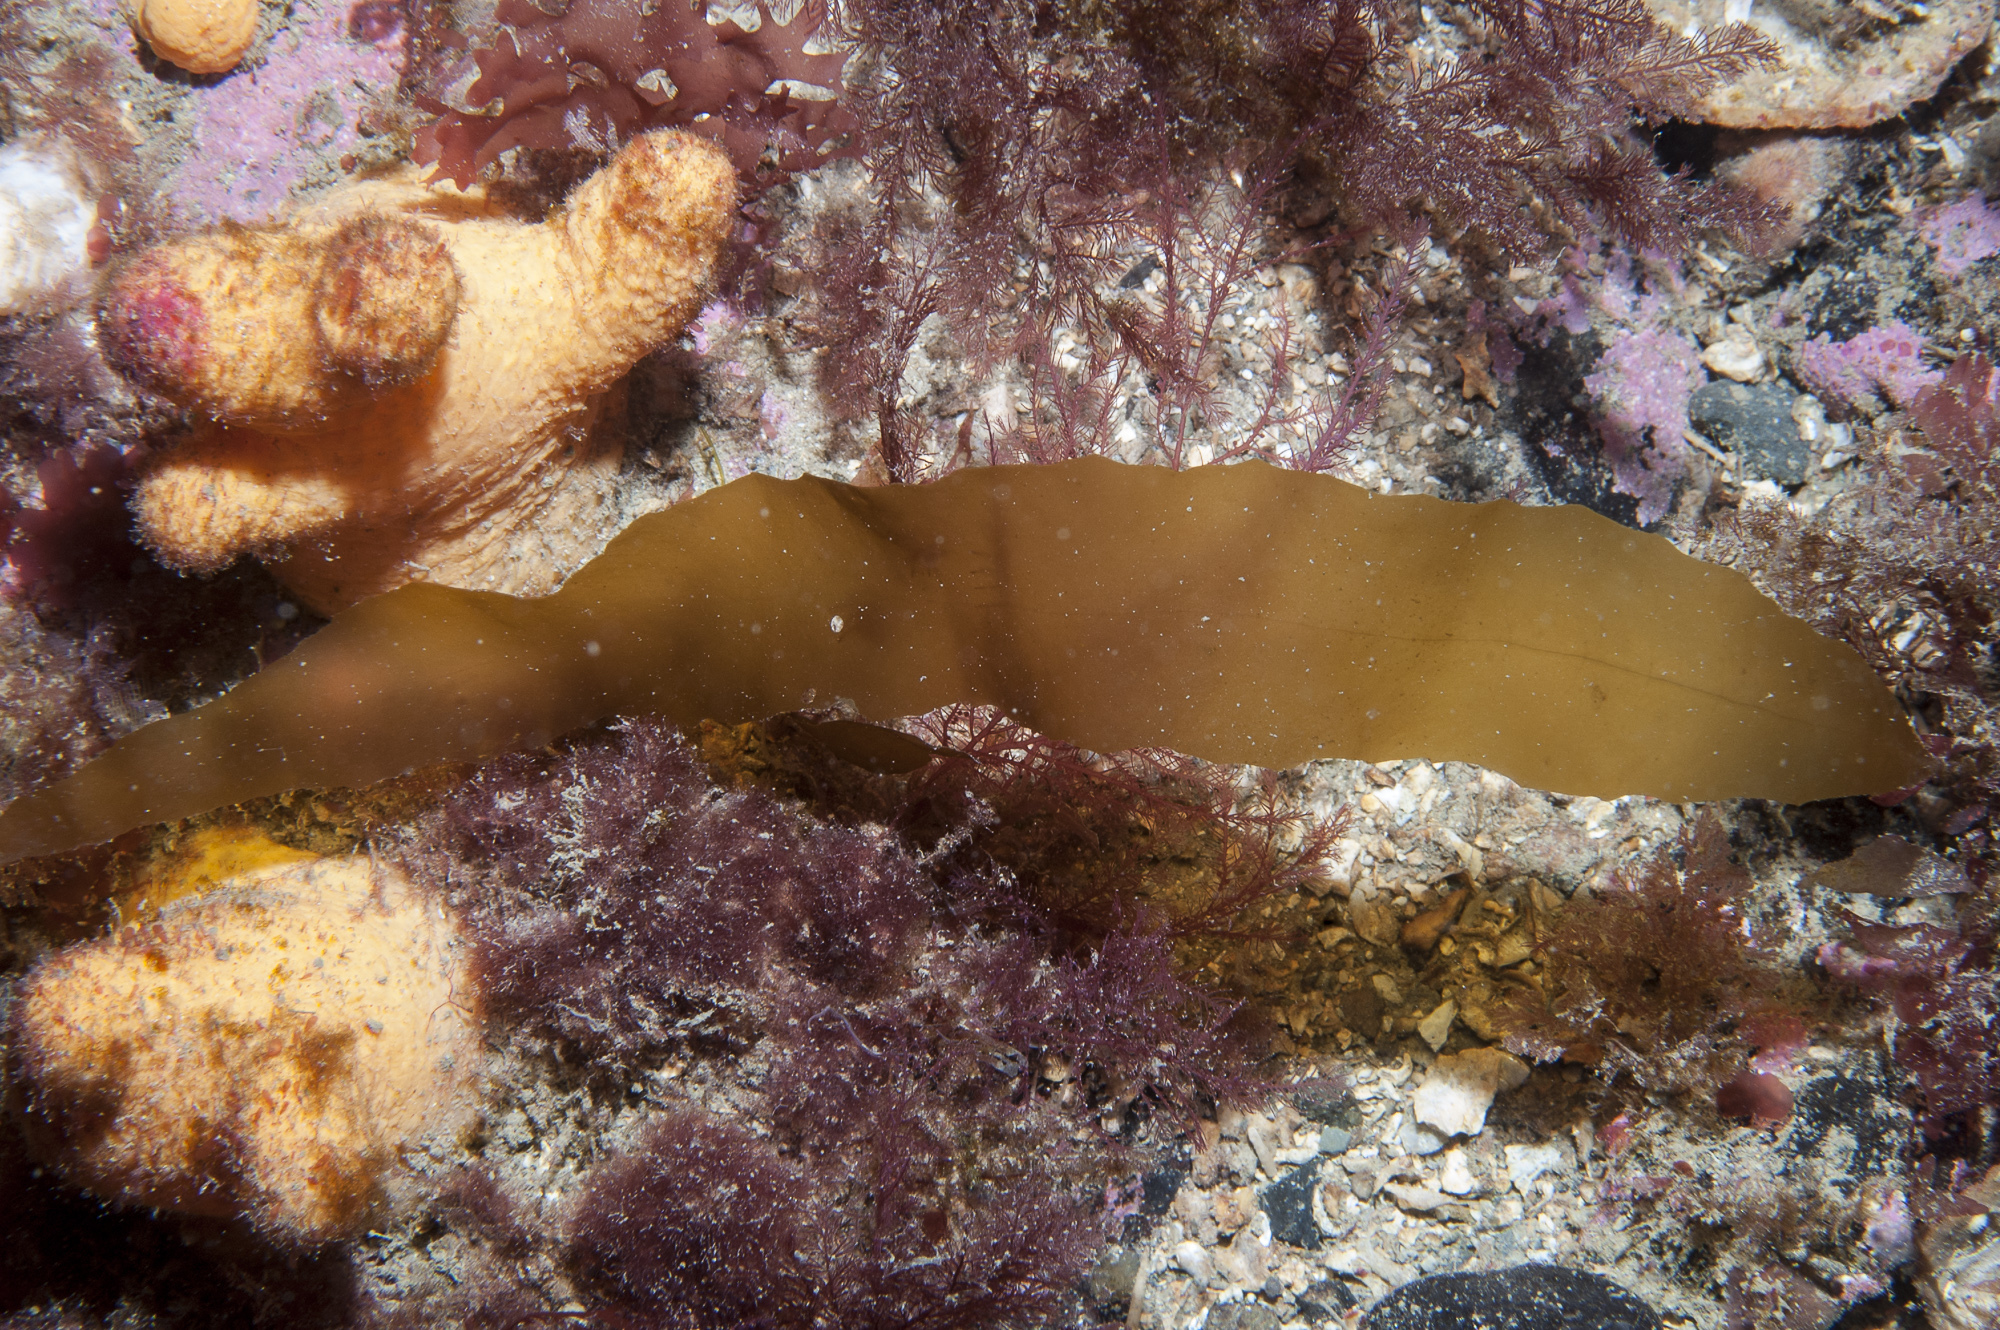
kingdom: Chromista
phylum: Ochrophyta
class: Phaeophyceae
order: Desmarestiales
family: Desmarestiaceae
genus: Desmarestia
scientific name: Desmarestia dudresnayi
